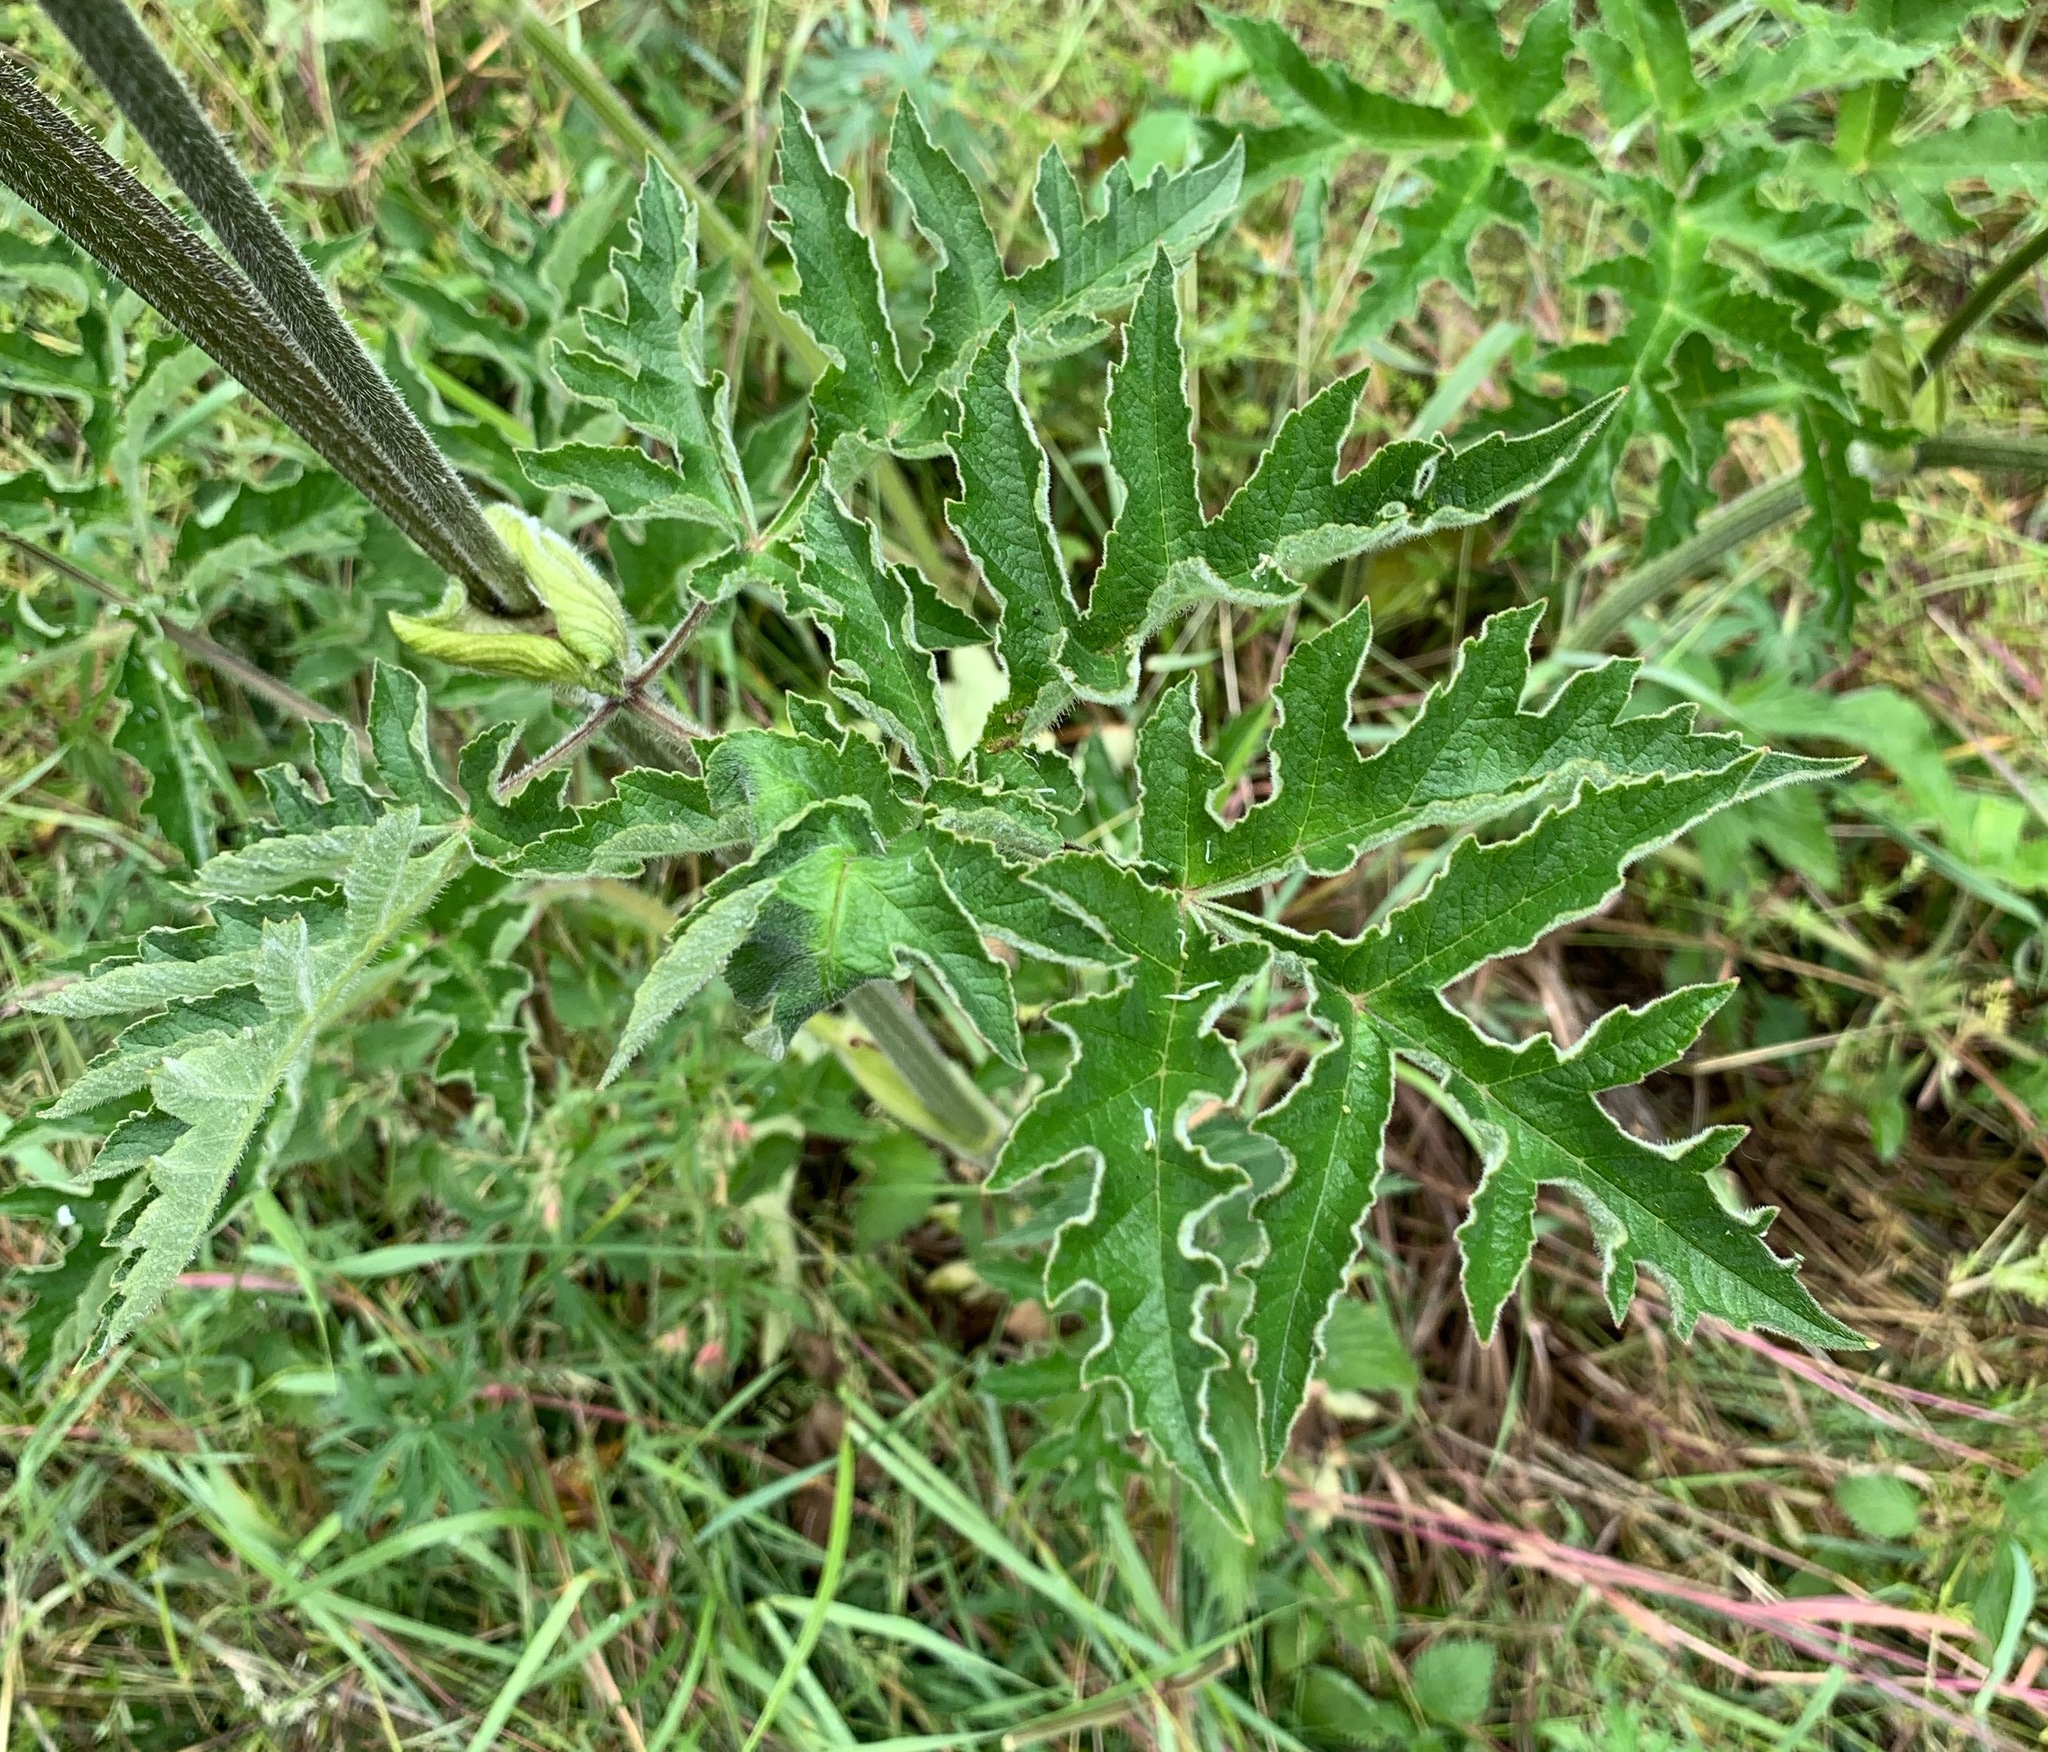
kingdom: Plantae
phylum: Tracheophyta
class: Magnoliopsida
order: Apiales
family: Apiaceae
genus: Heracleum
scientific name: Heracleum sphondylium
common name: Hogweed
